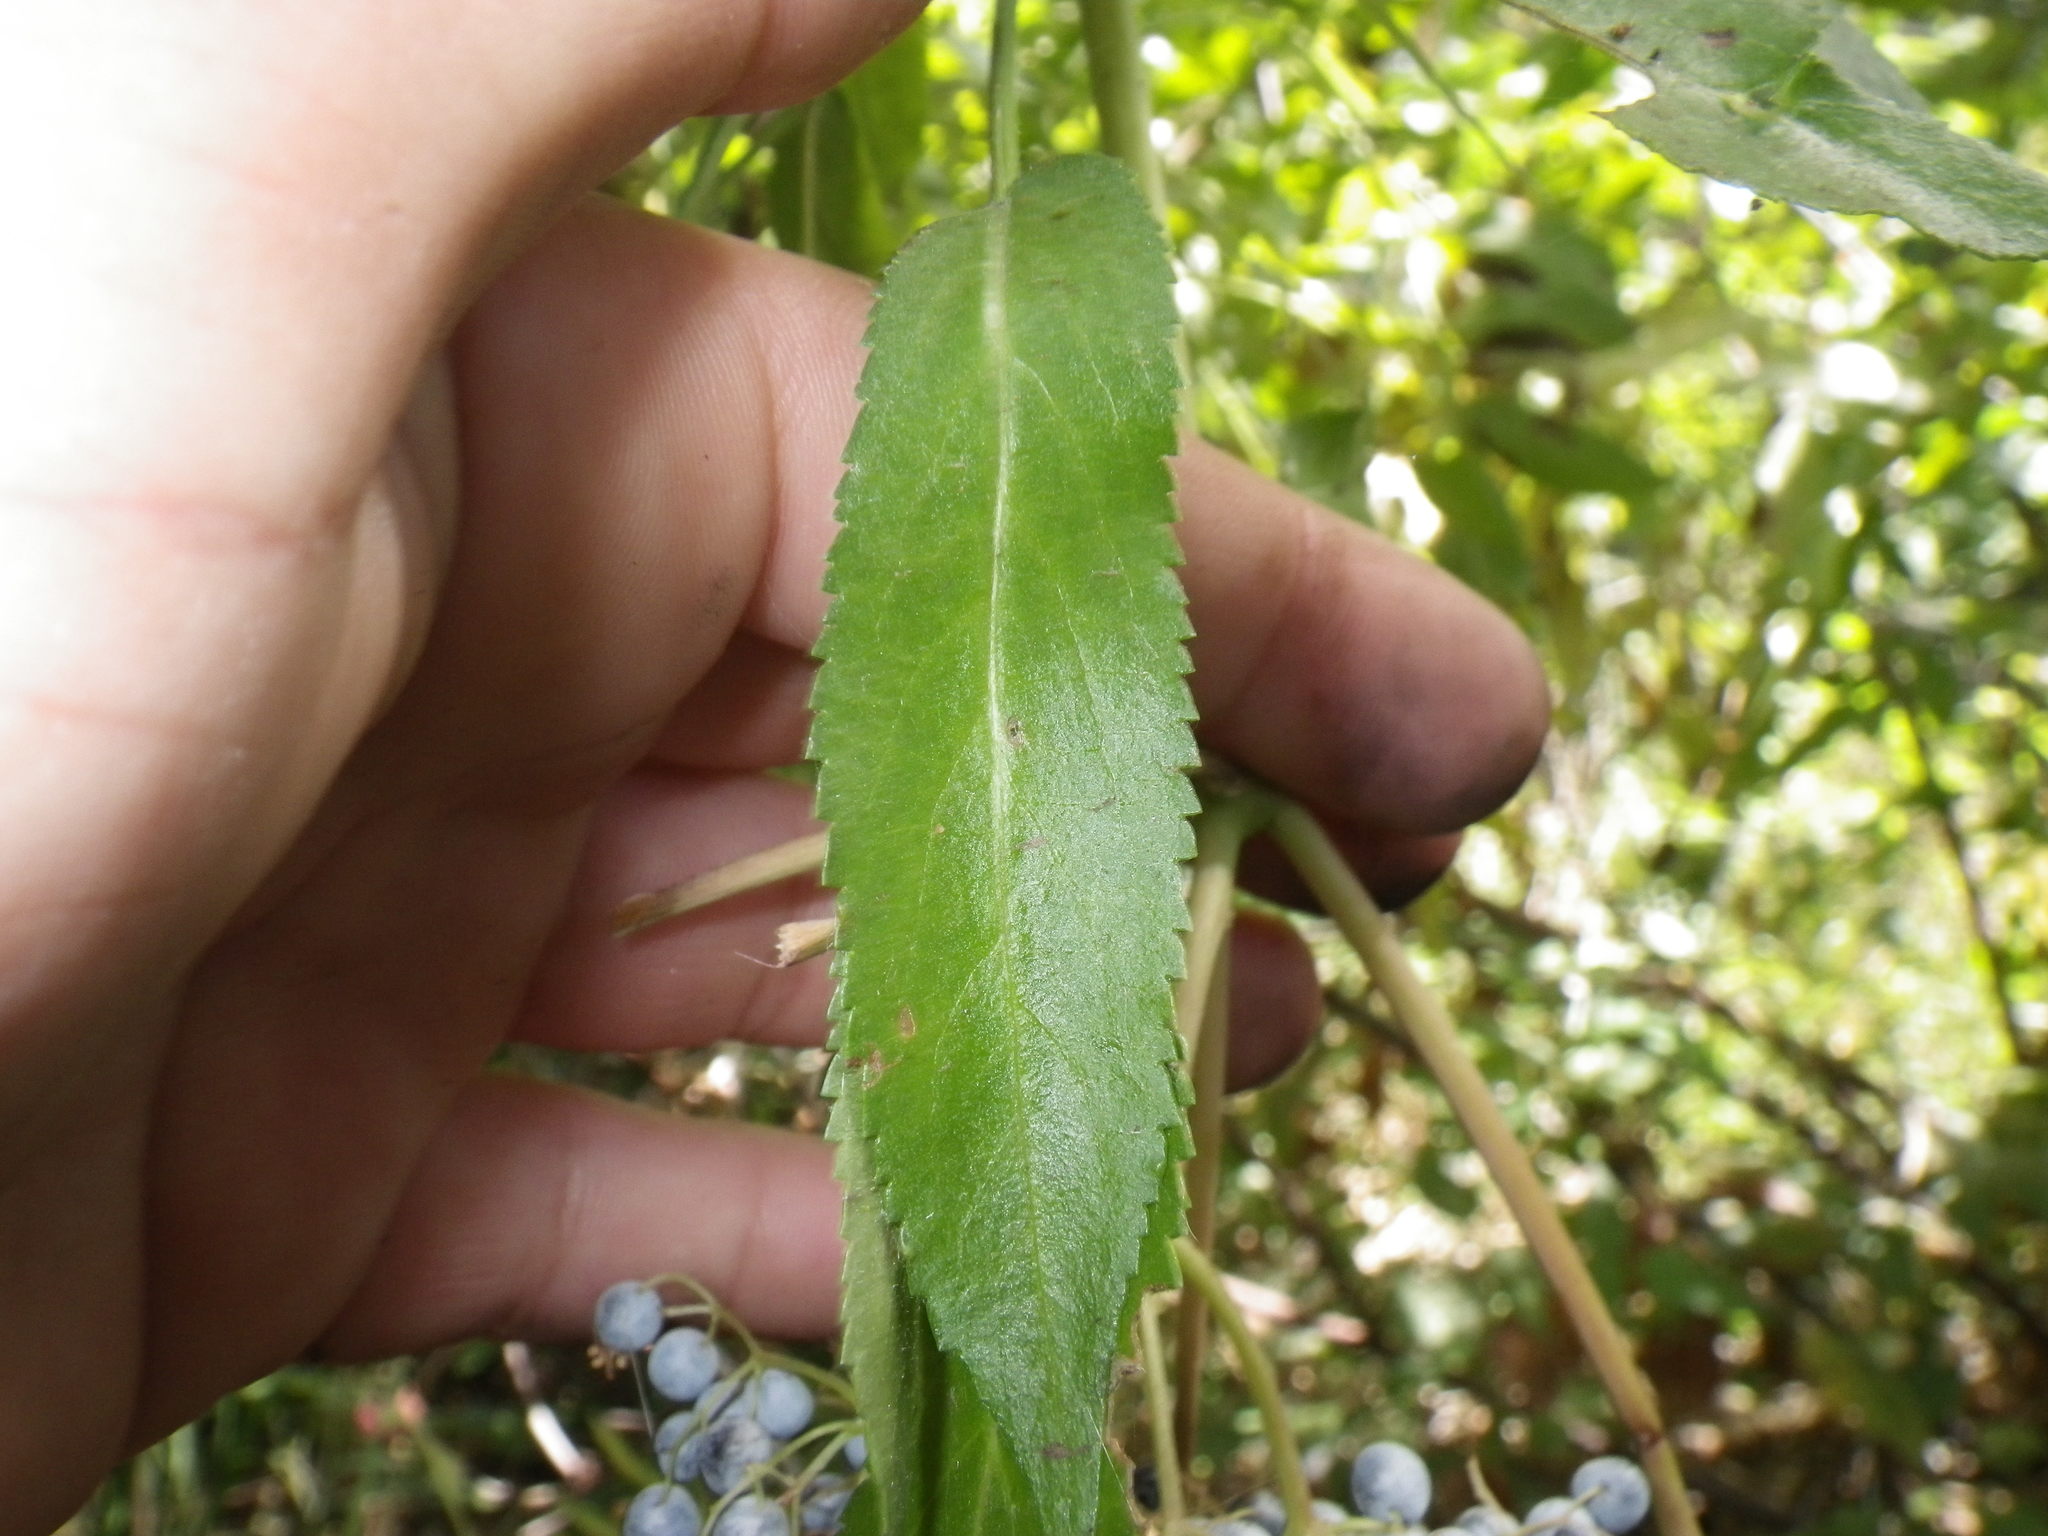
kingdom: Plantae
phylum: Tracheophyta
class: Magnoliopsida
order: Dipsacales
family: Viburnaceae
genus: Sambucus
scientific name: Sambucus cerulea
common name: Blue elder
